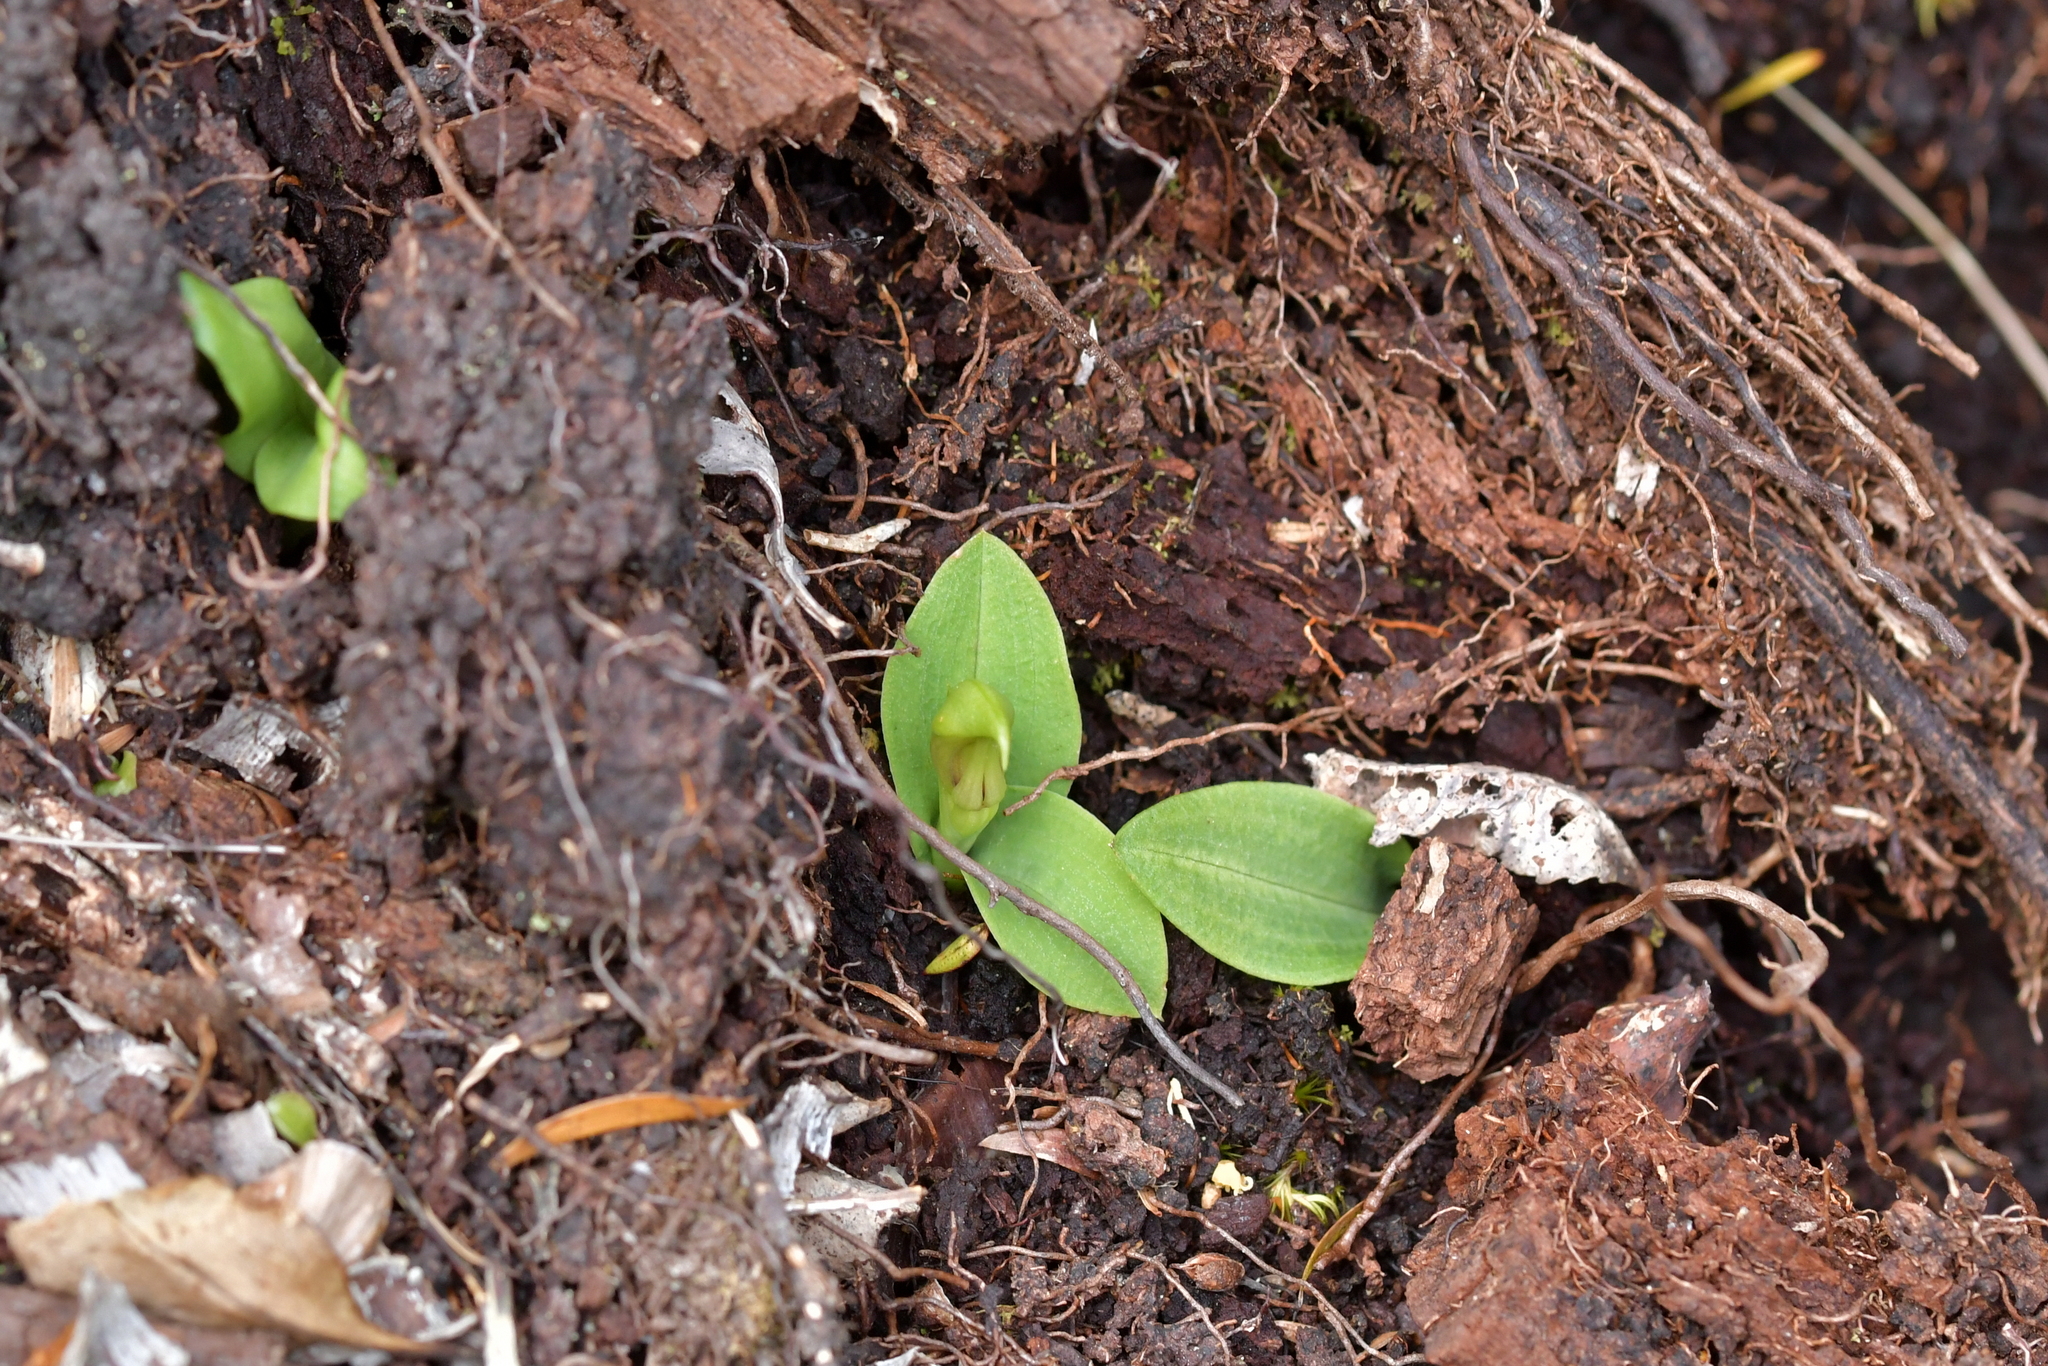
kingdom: Plantae
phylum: Tracheophyta
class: Liliopsida
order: Asparagales
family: Orchidaceae
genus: Chiloglottis
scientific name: Chiloglottis cornuta
